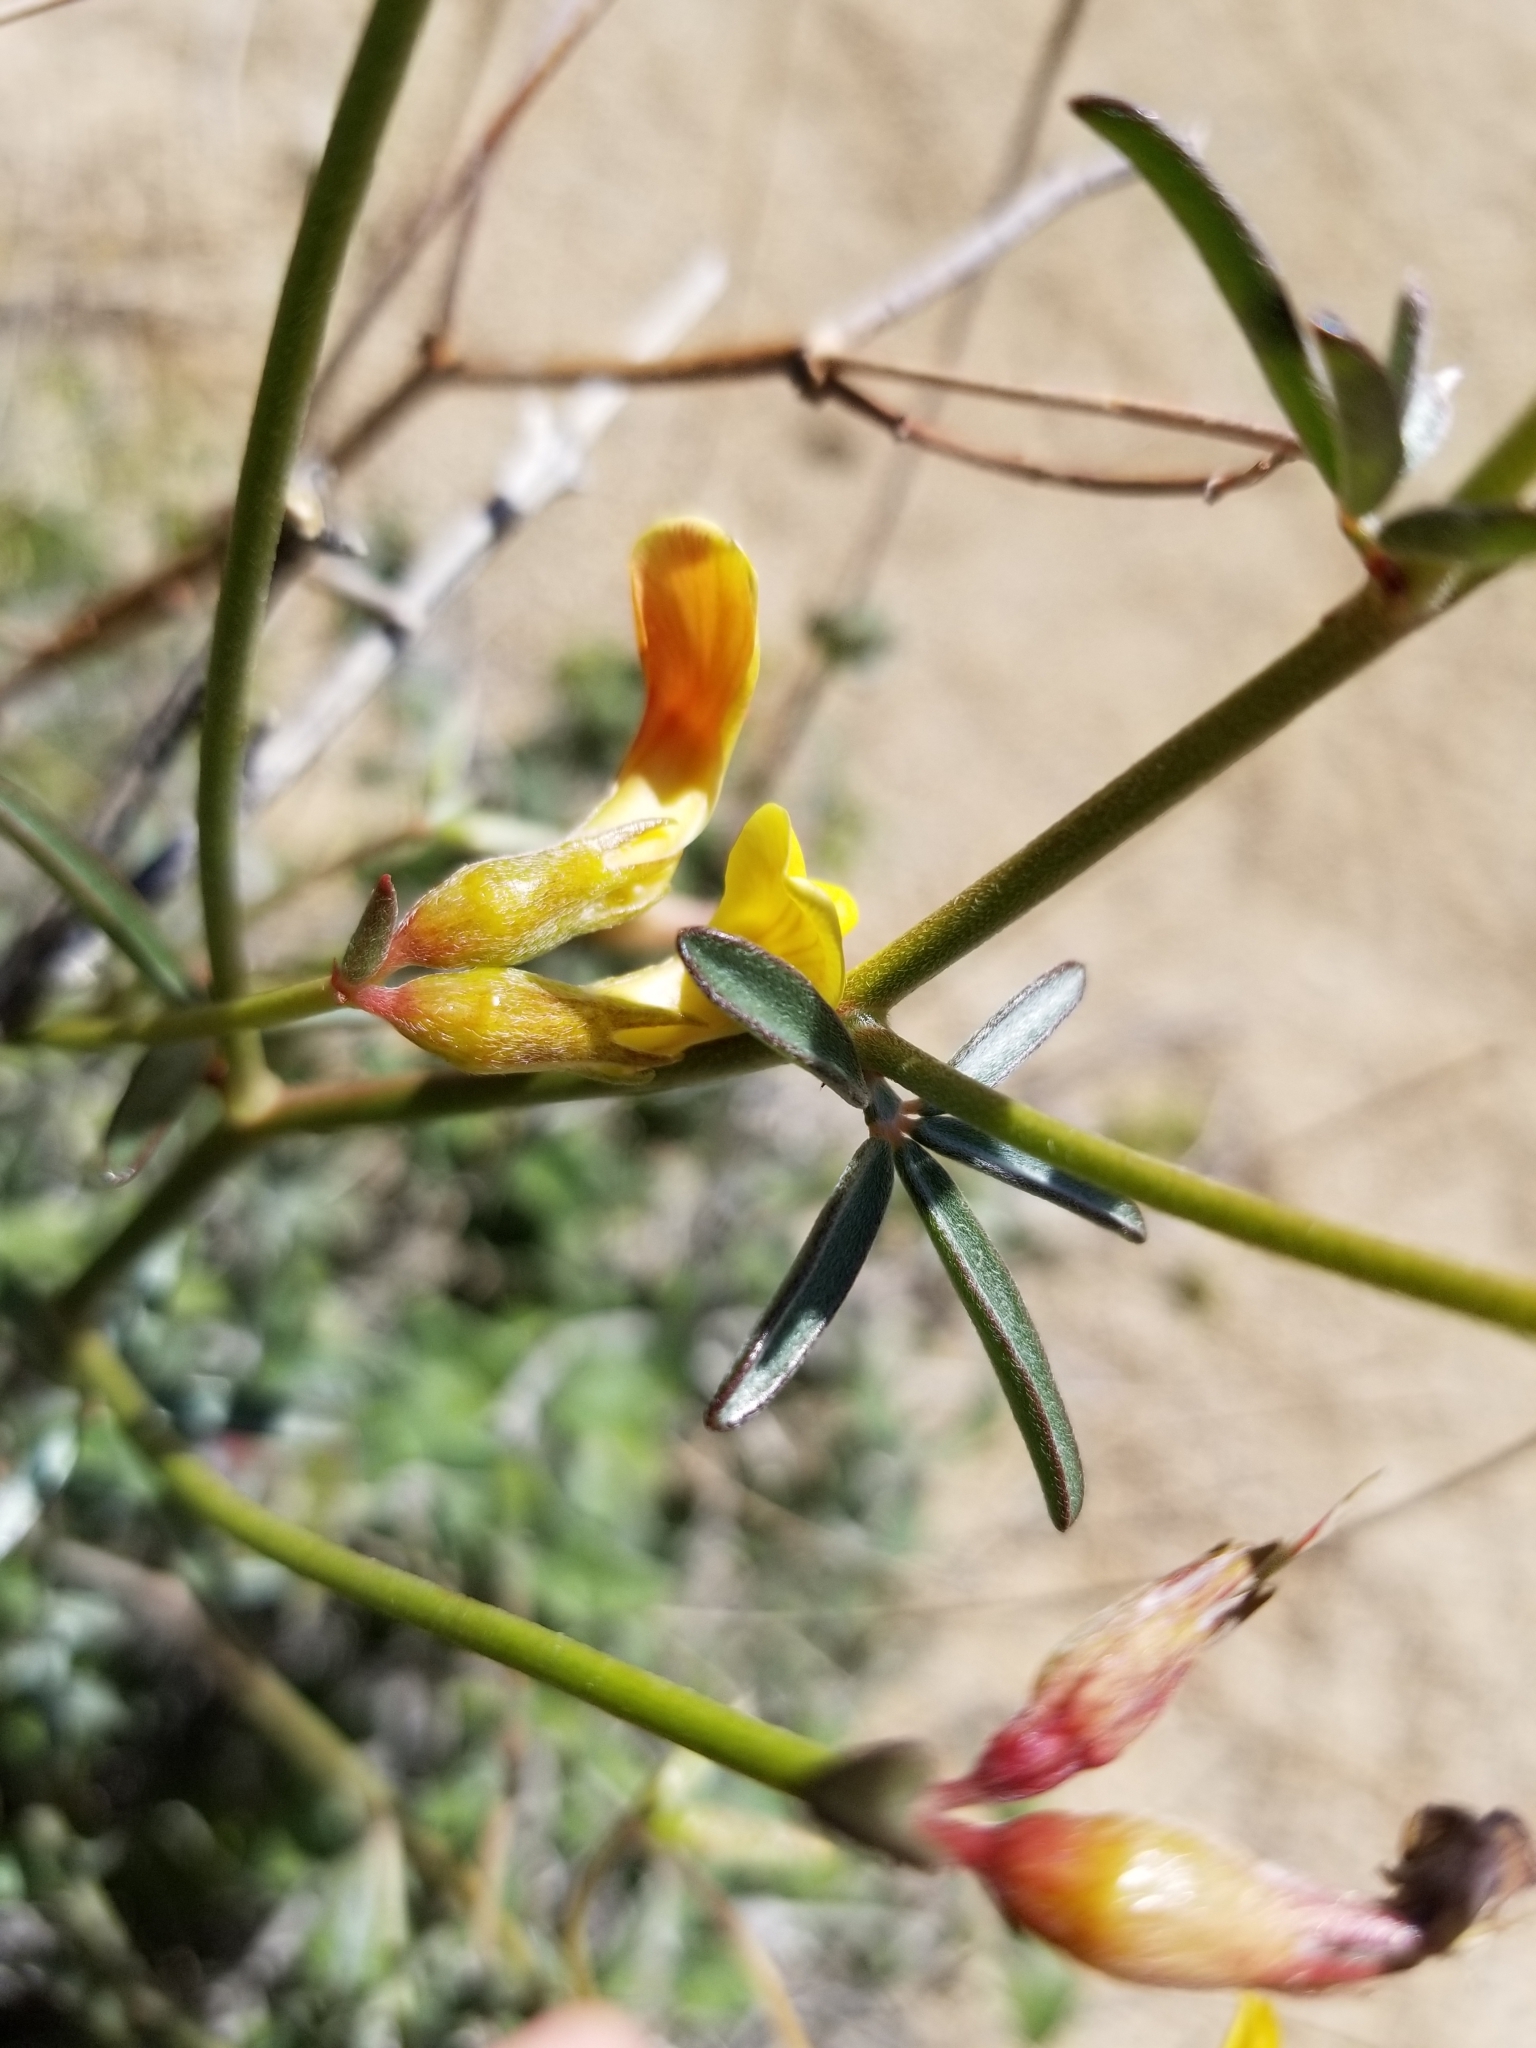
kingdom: Plantae
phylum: Tracheophyta
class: Magnoliopsida
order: Fabales
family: Fabaceae
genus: Acmispon
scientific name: Acmispon rigidus
